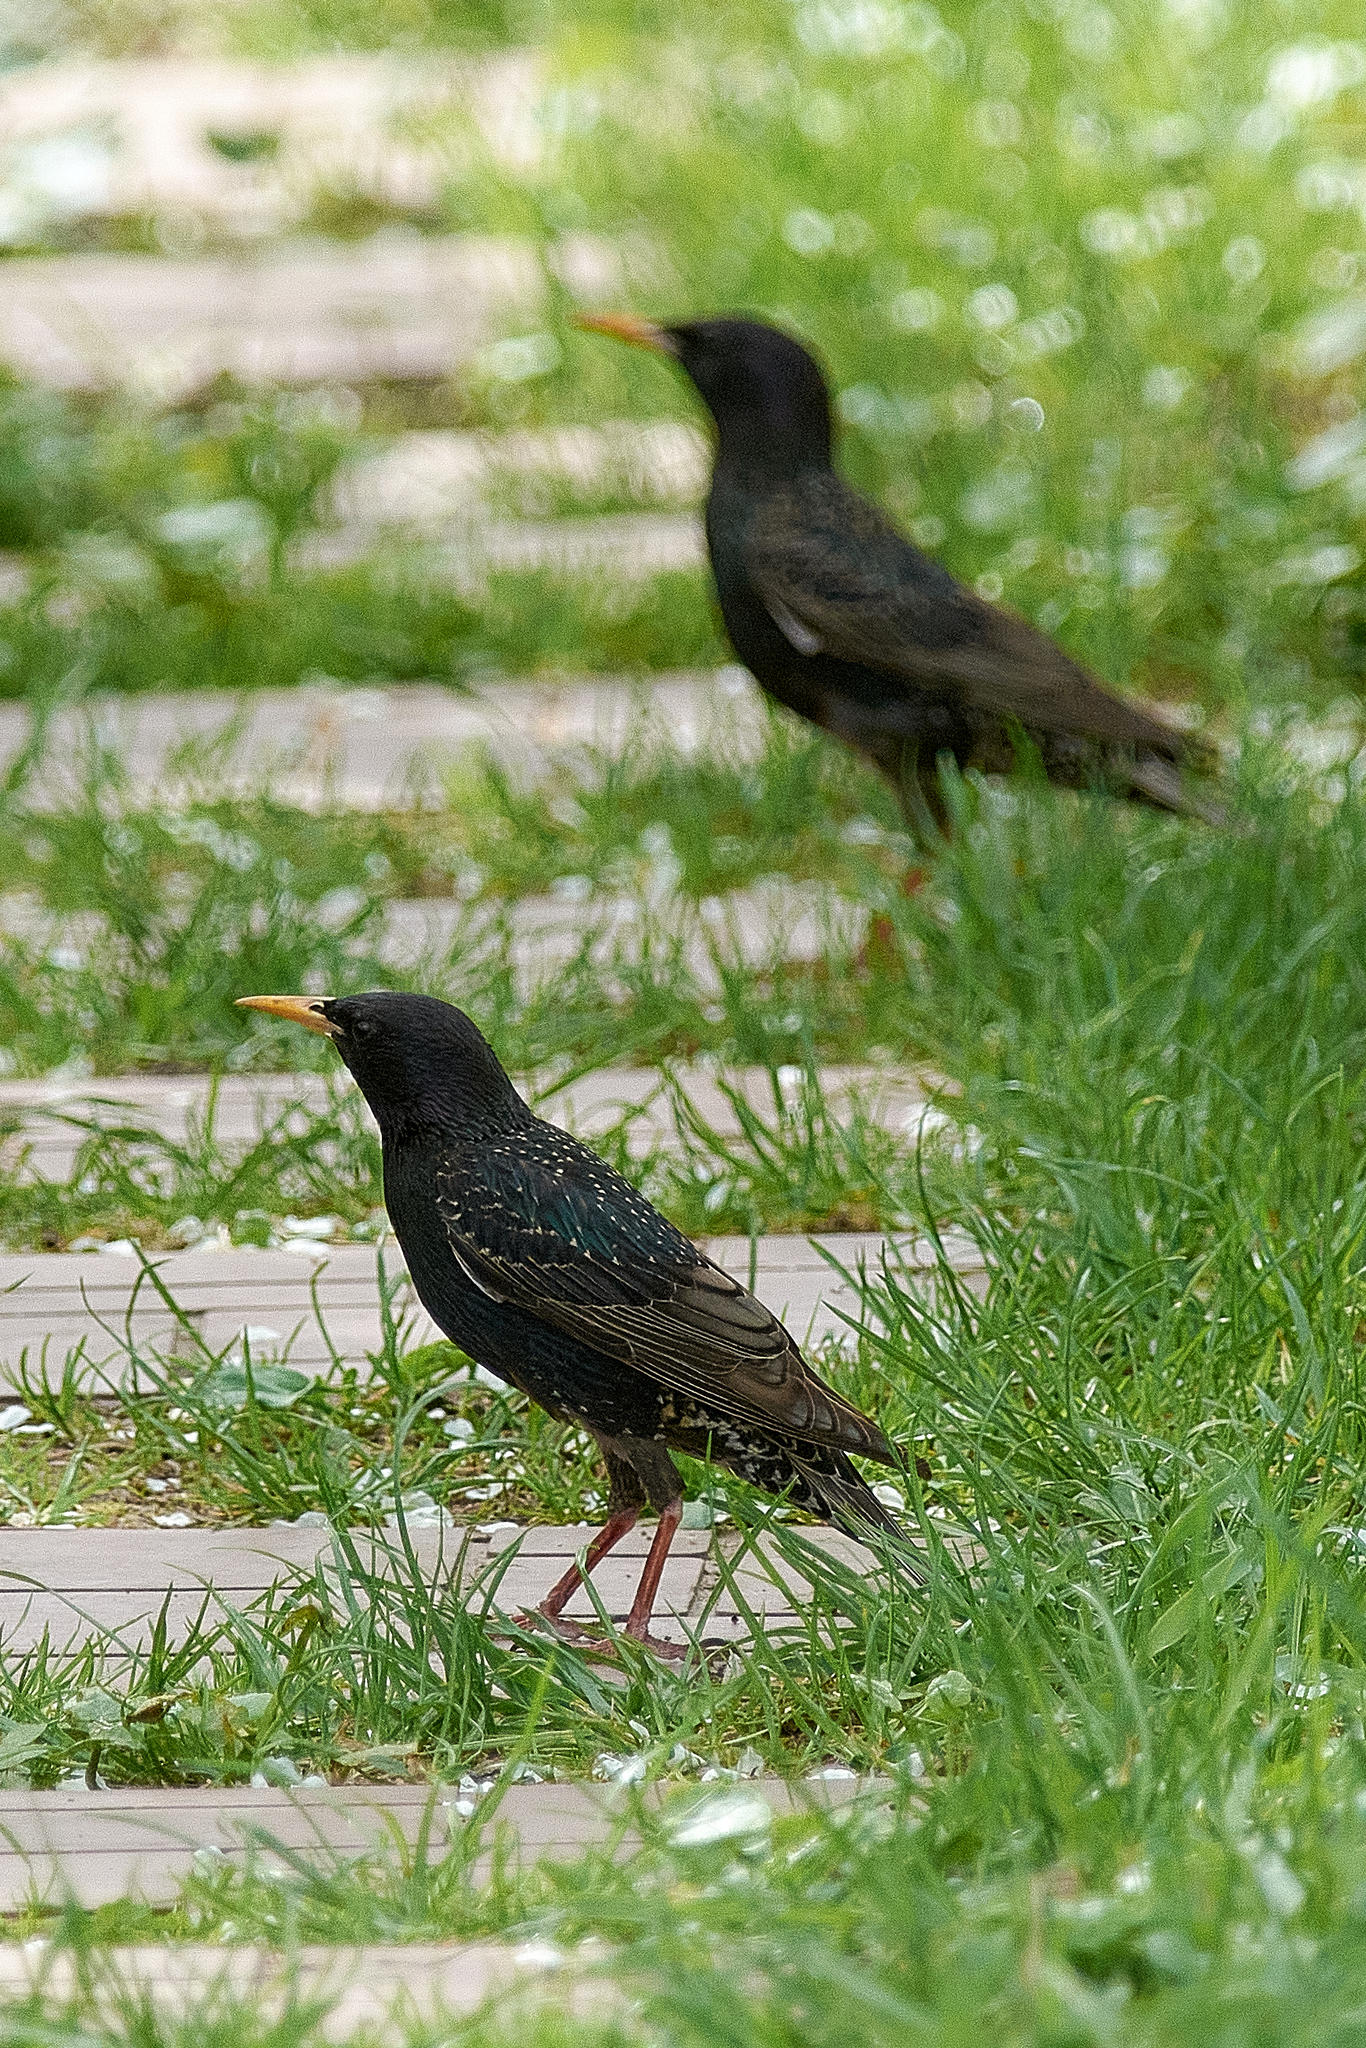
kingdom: Animalia
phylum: Chordata
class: Aves
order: Passeriformes
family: Sturnidae
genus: Sturnus
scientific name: Sturnus vulgaris
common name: Common starling
